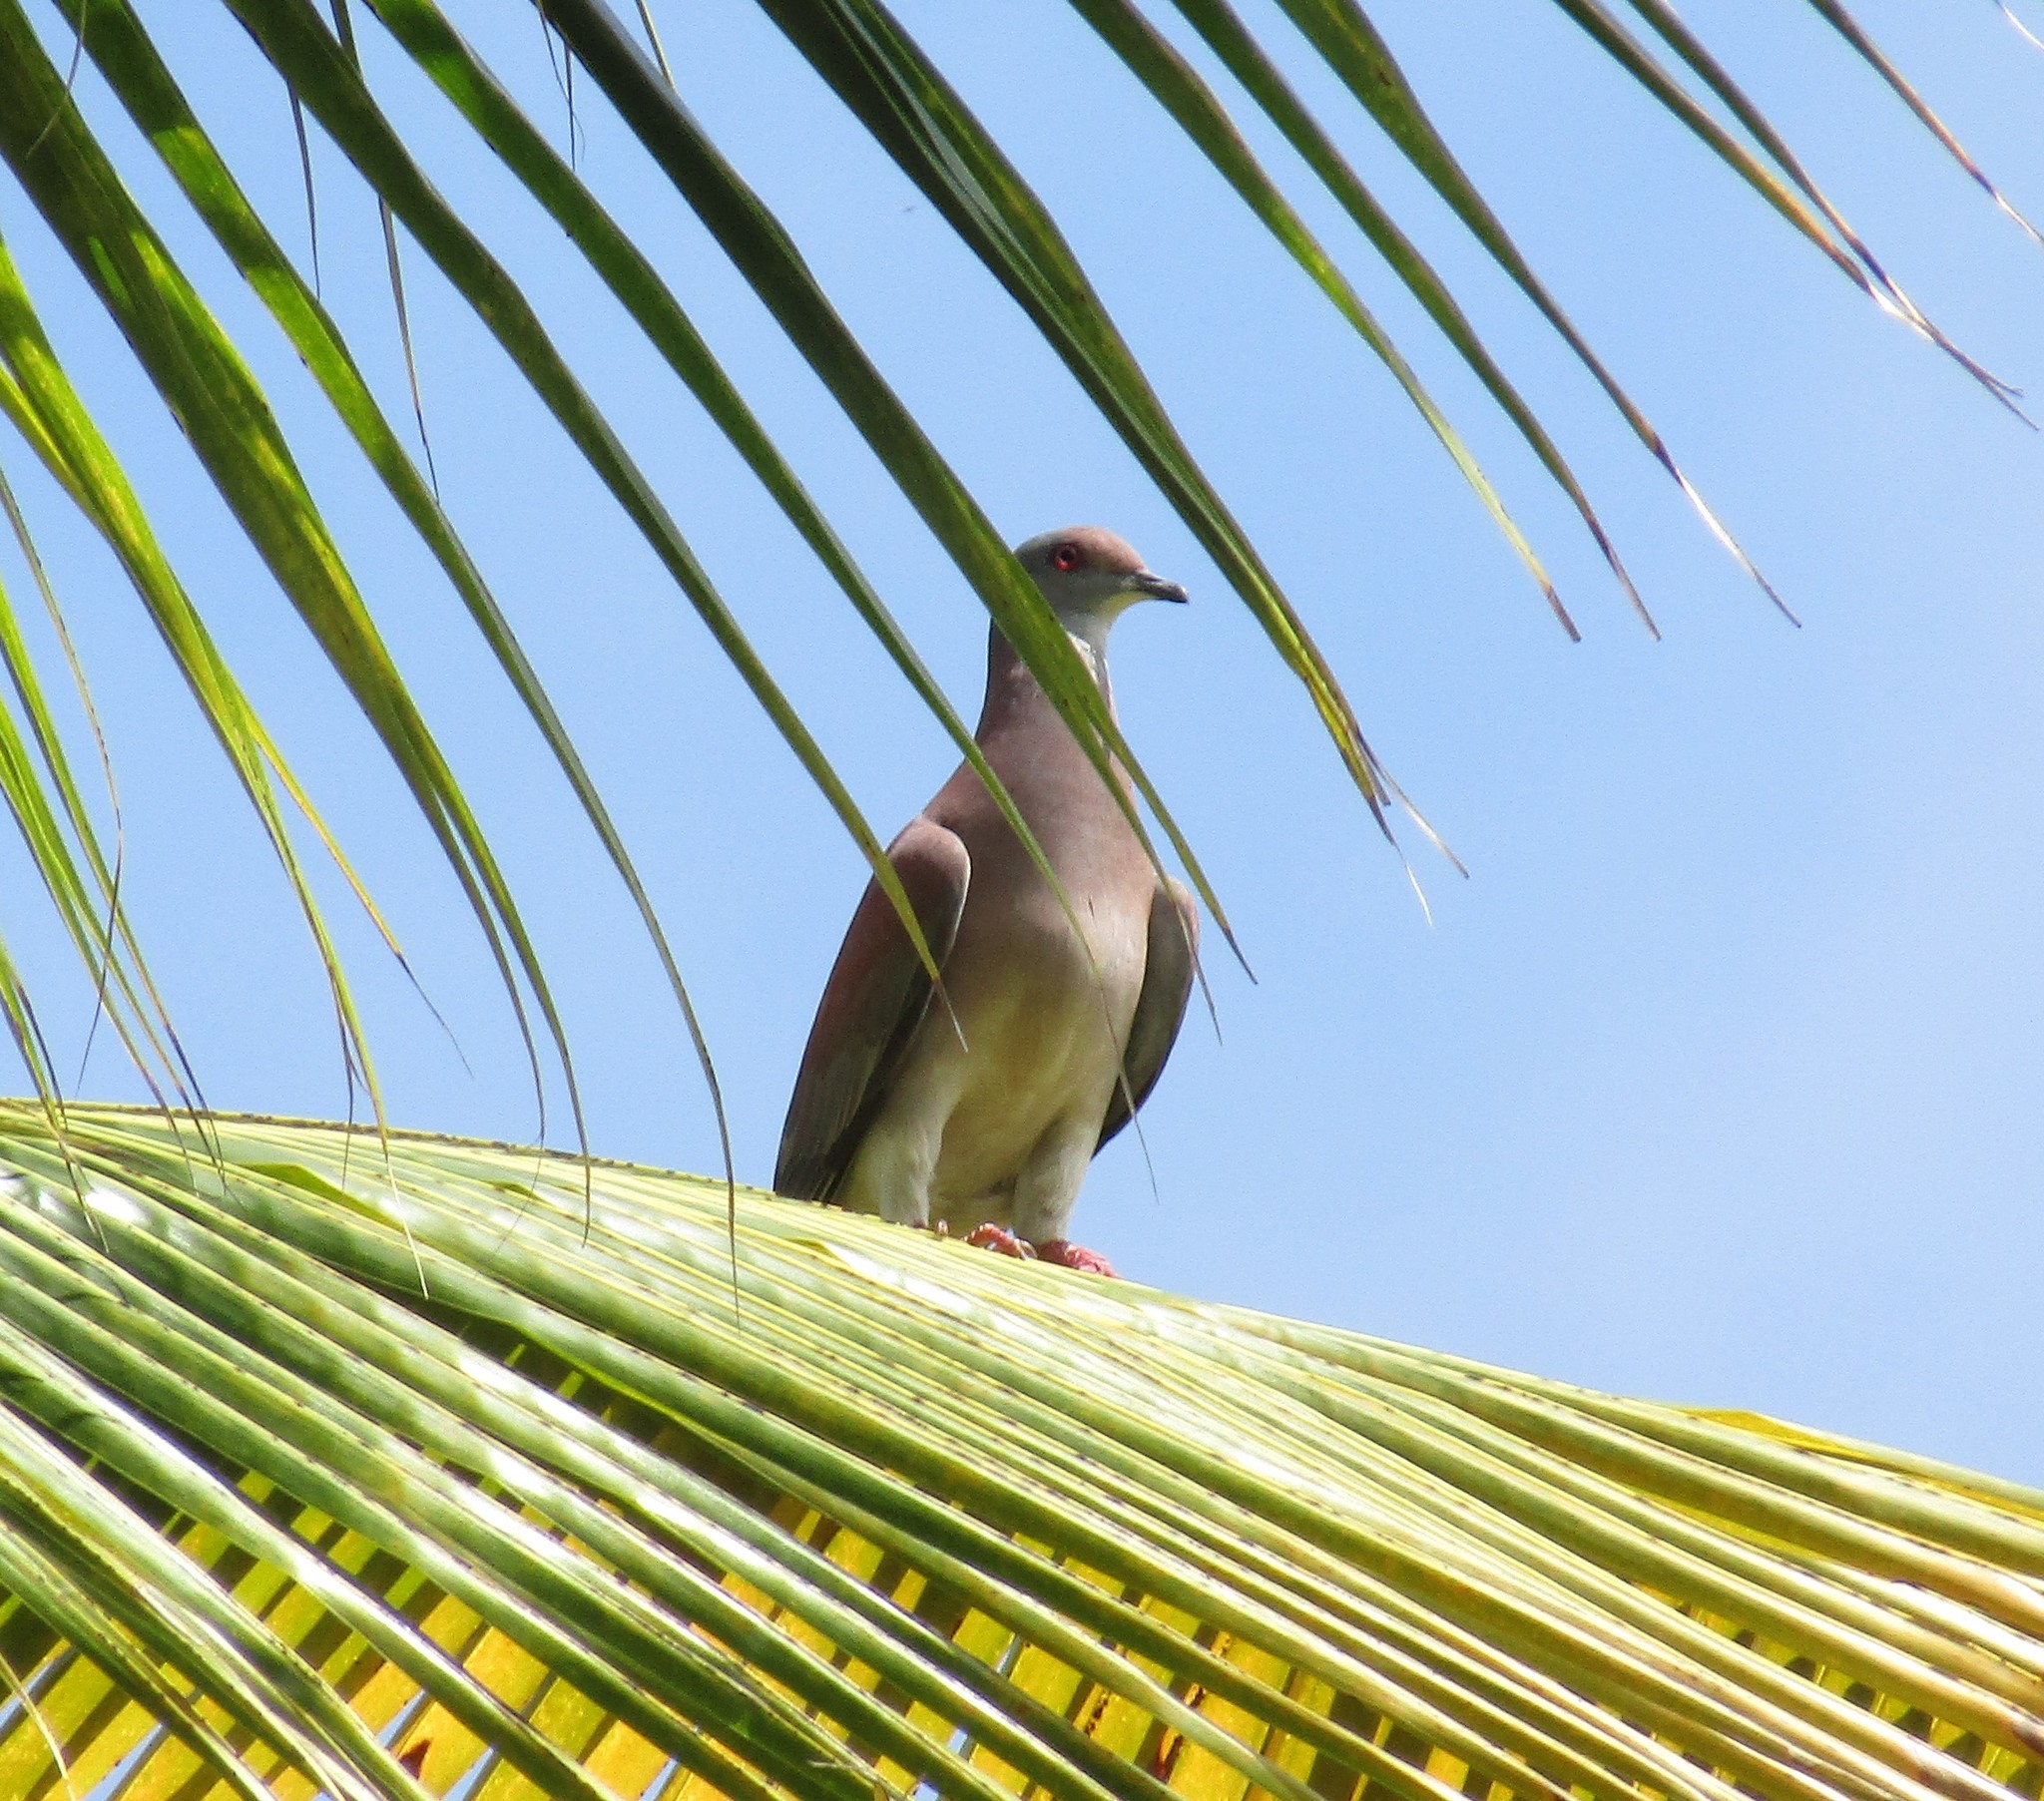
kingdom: Animalia
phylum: Chordata
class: Aves
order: Columbiformes
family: Columbidae
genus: Patagioenas
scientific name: Patagioenas cayennensis
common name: Pale-vented pigeon
